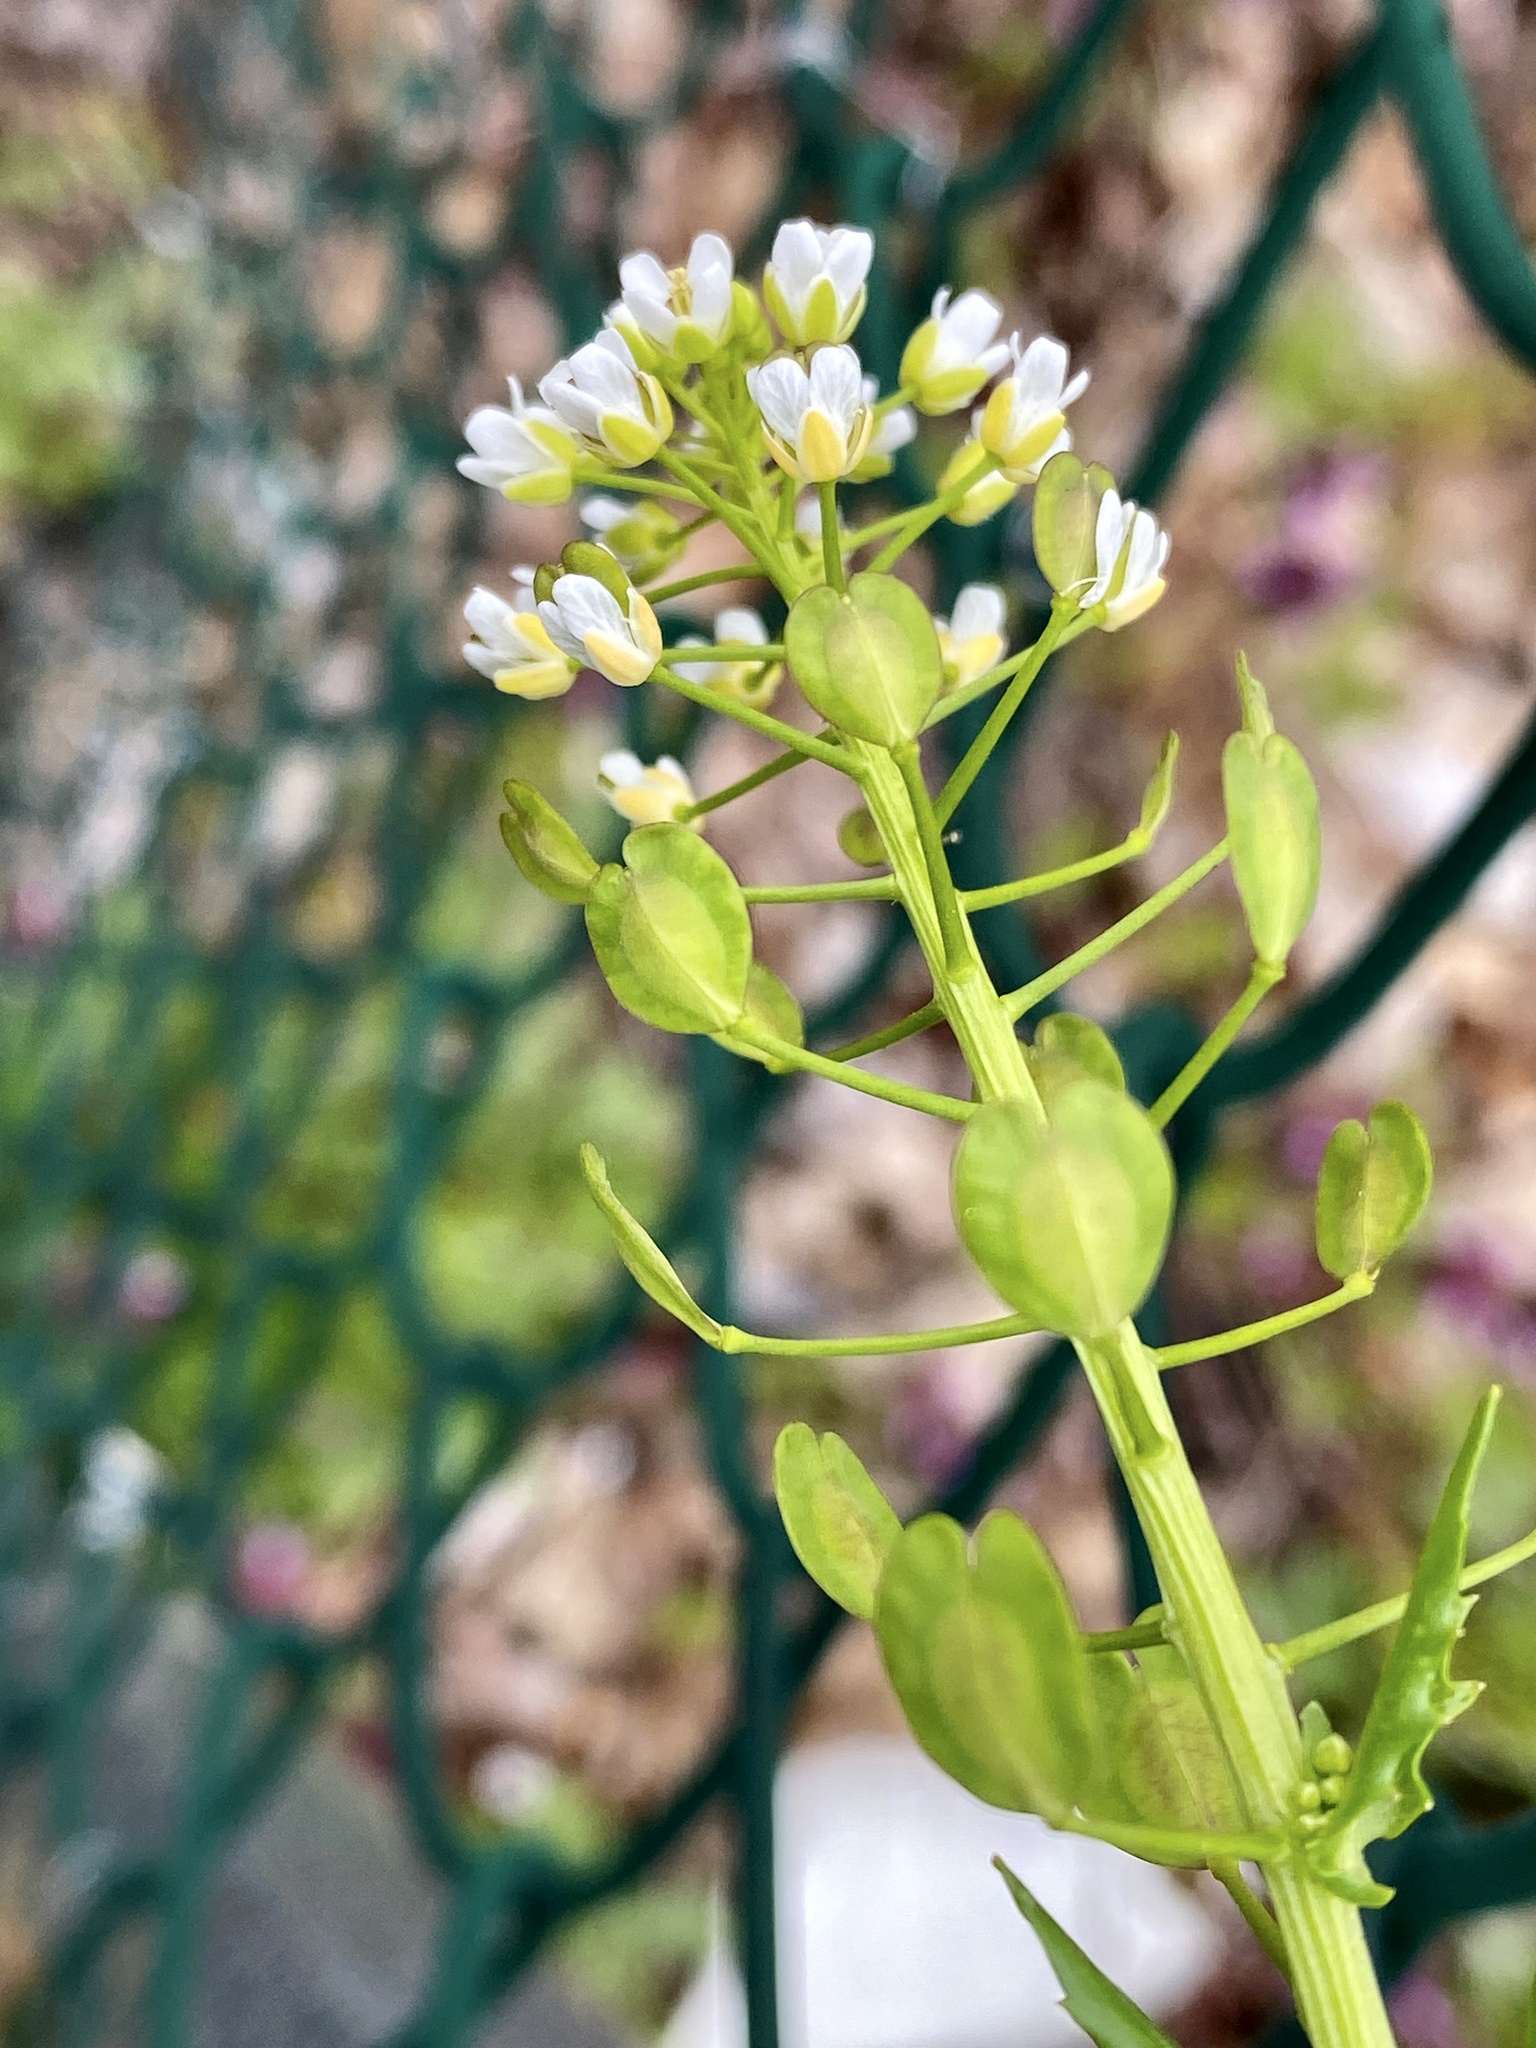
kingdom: Plantae
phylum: Tracheophyta
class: Magnoliopsida
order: Brassicales
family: Brassicaceae
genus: Thlaspi
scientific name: Thlaspi arvense
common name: Field pennycress
